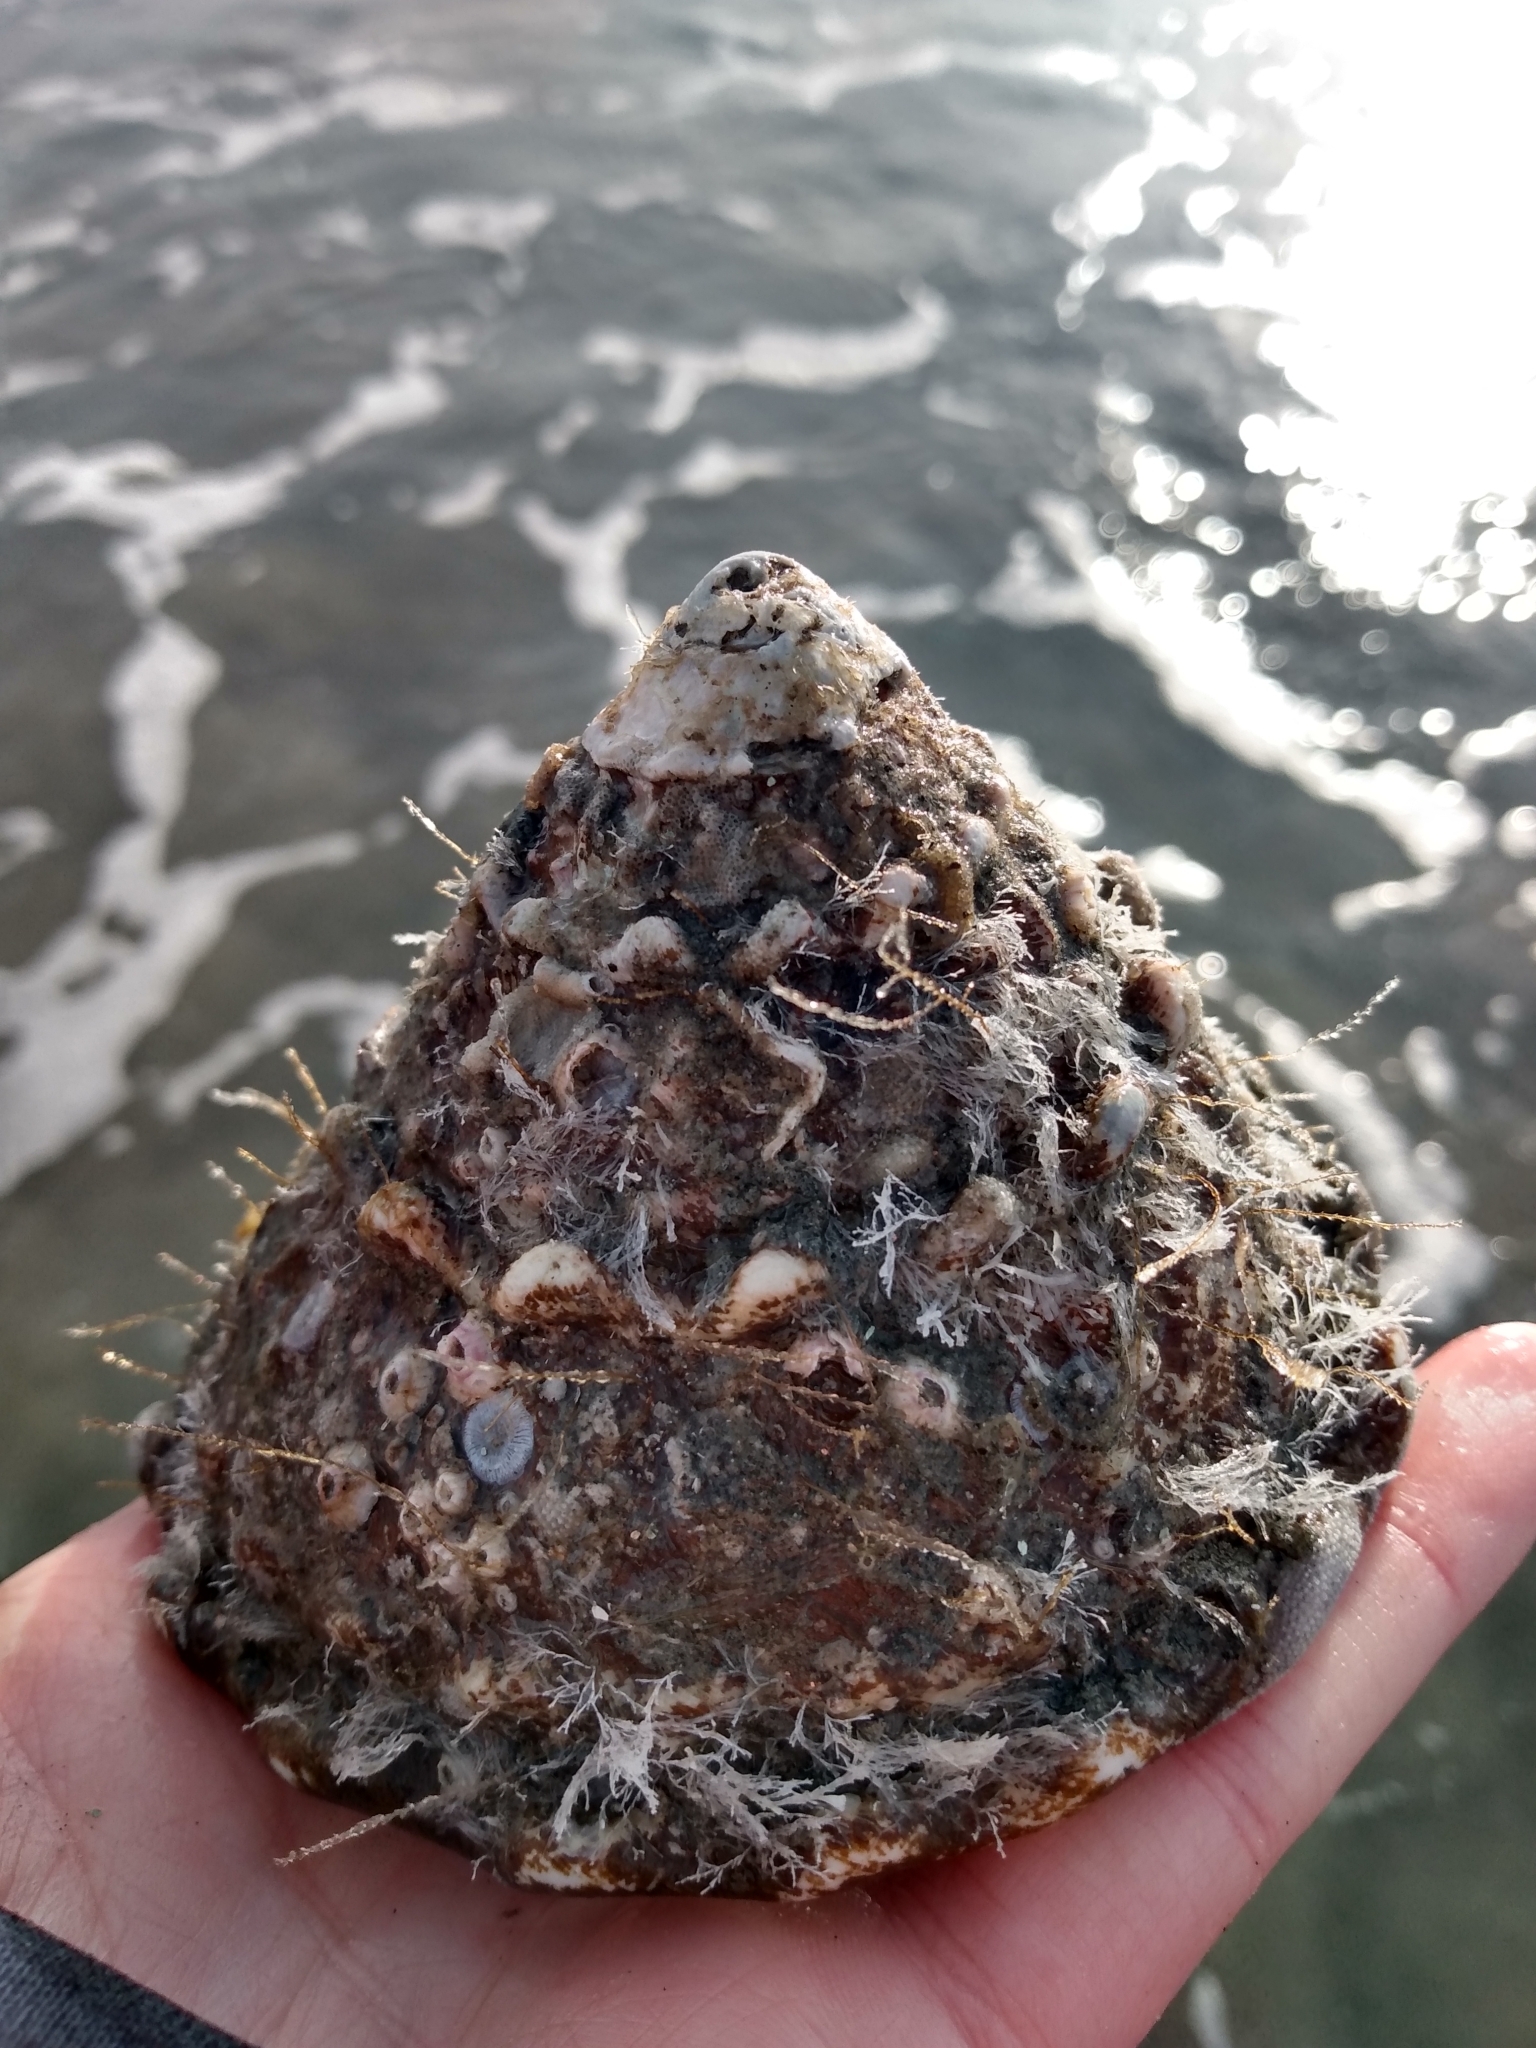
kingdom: Animalia
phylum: Mollusca
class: Gastropoda
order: Trochida
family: Turbinidae
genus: Megastraea
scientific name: Megastraea undosa
